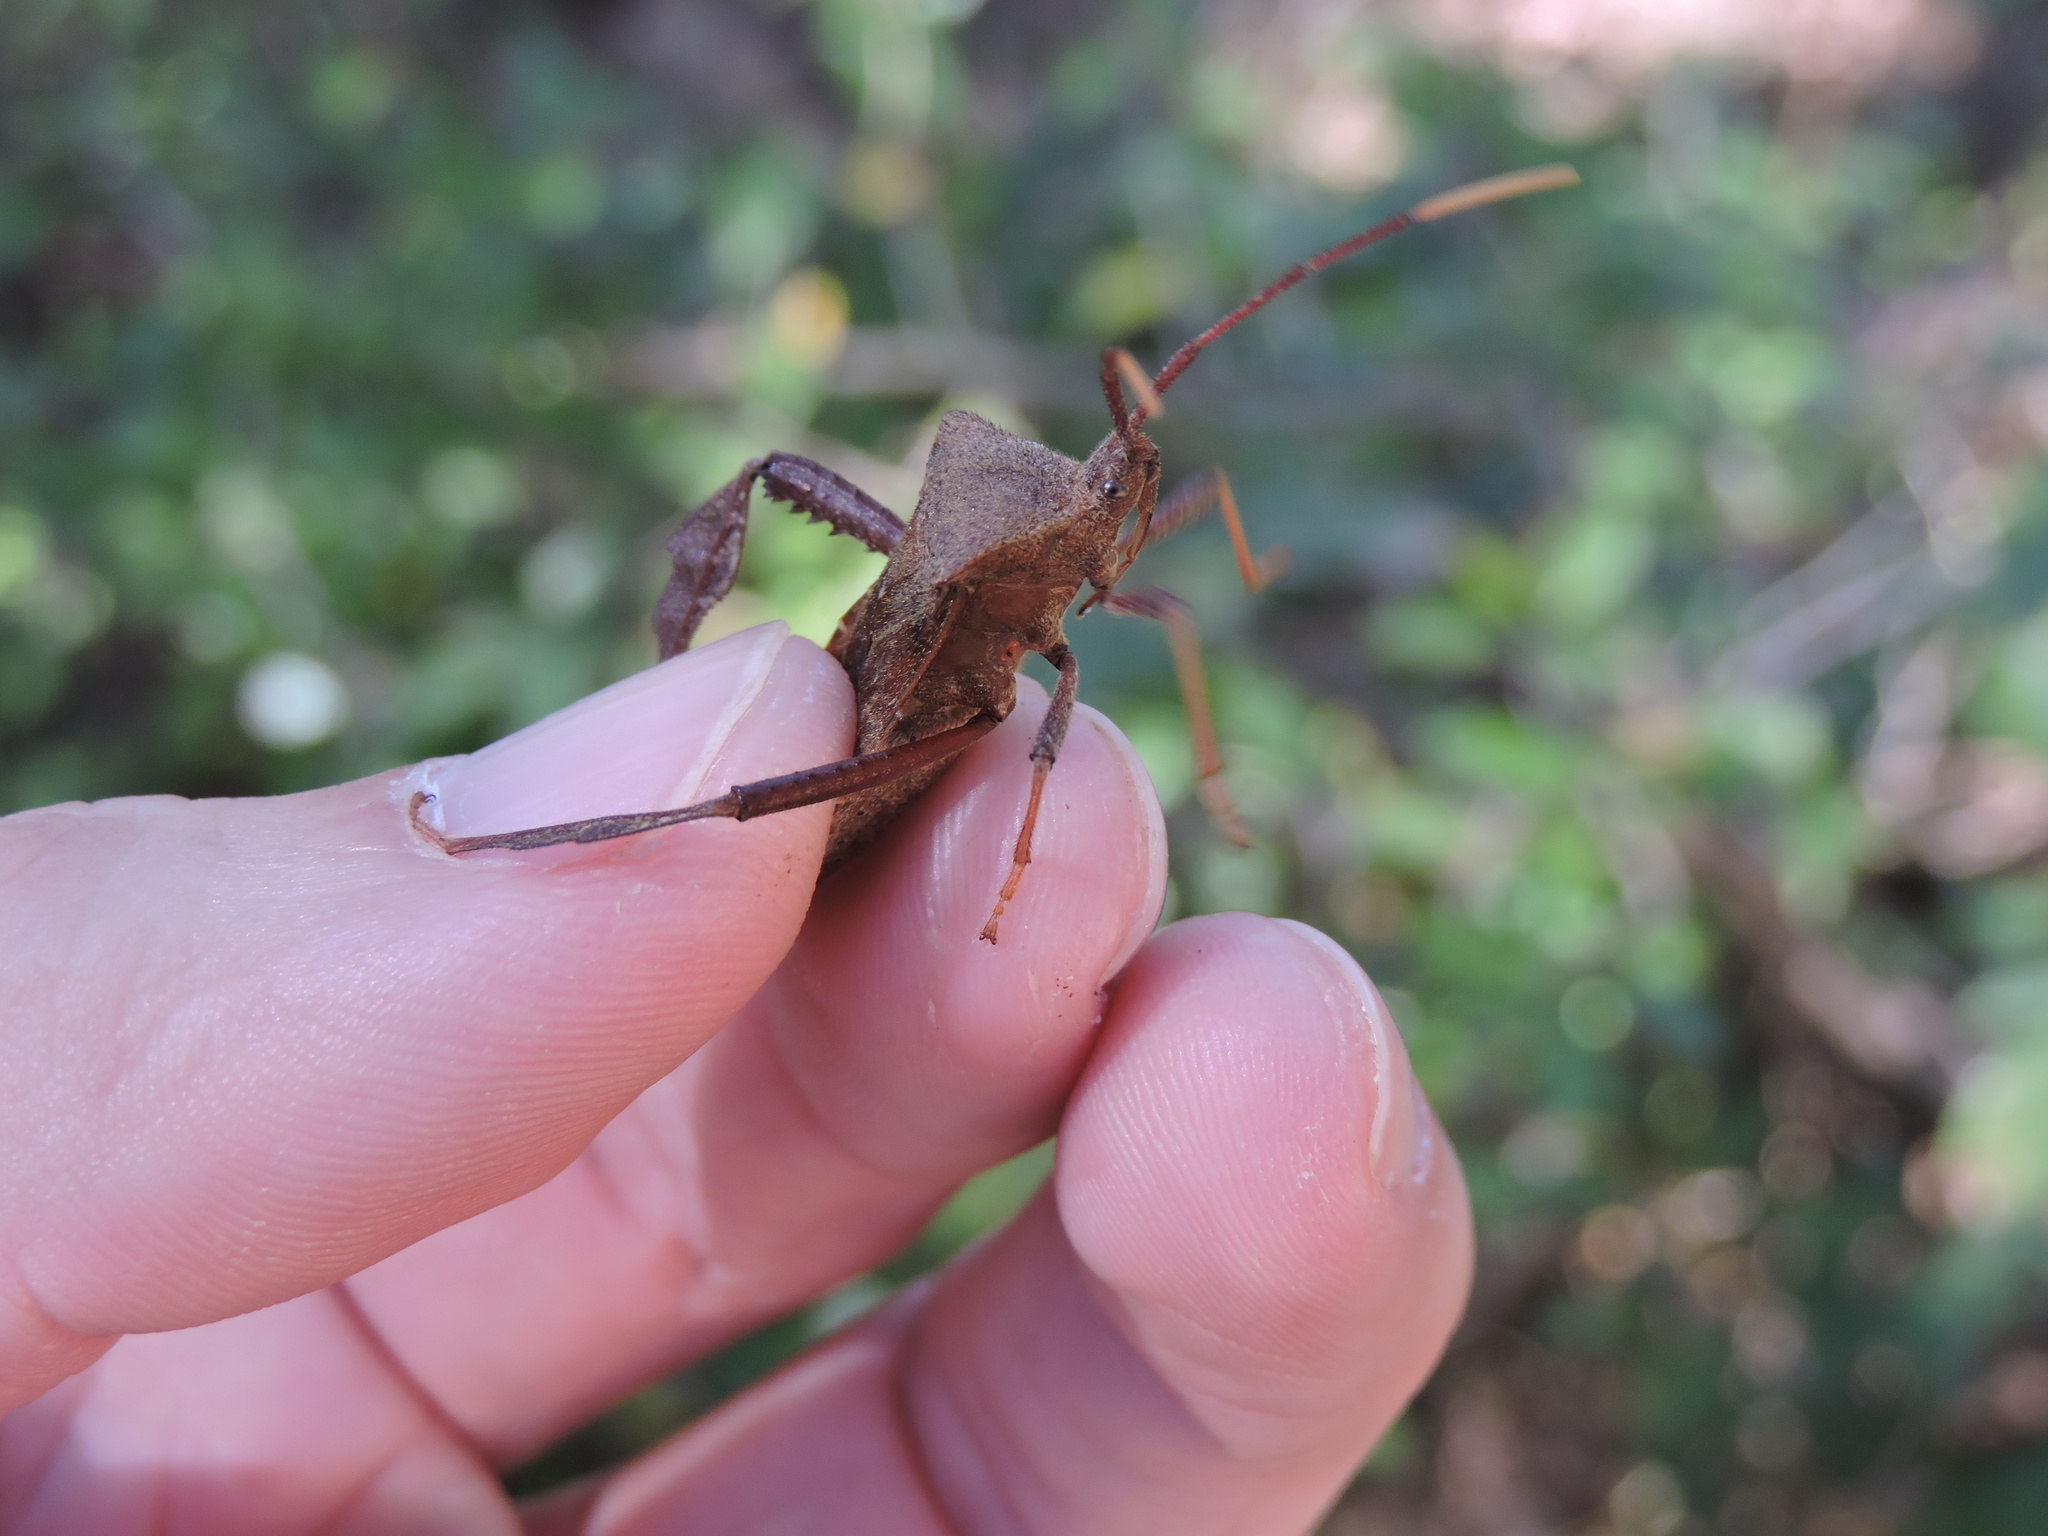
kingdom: Animalia
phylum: Arthropoda
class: Insecta
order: Hemiptera
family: Coreidae
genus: Acanthocephala
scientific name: Acanthocephala terminalis
